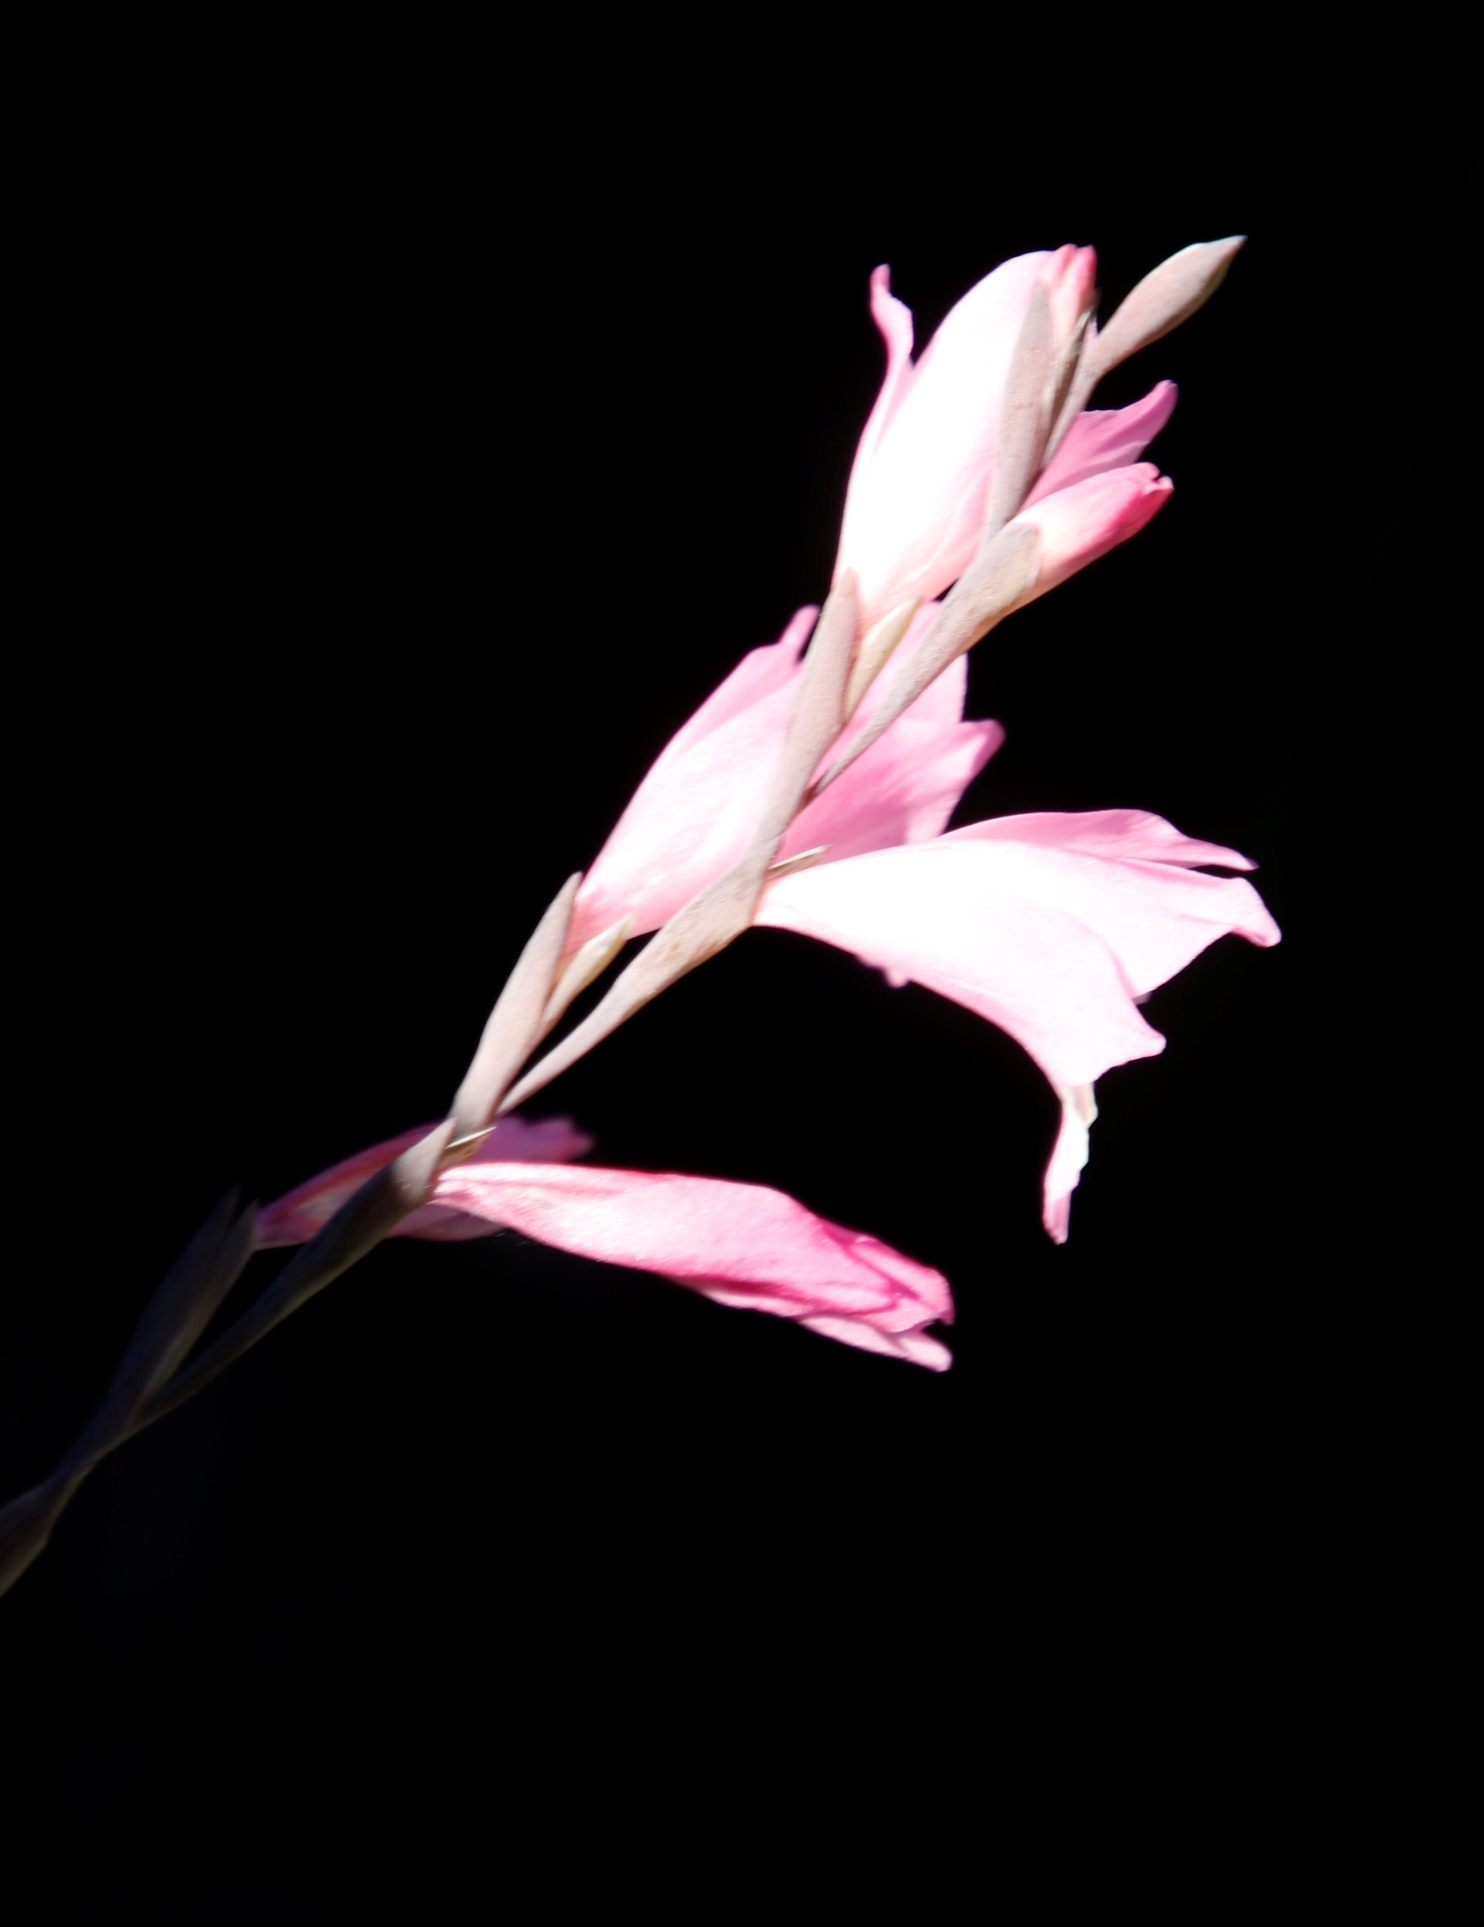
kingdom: Plantae
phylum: Tracheophyta
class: Liliopsida
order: Asparagales
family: Iridaceae
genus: Gladiolus
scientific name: Gladiolus brevifolius
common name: March pypie
